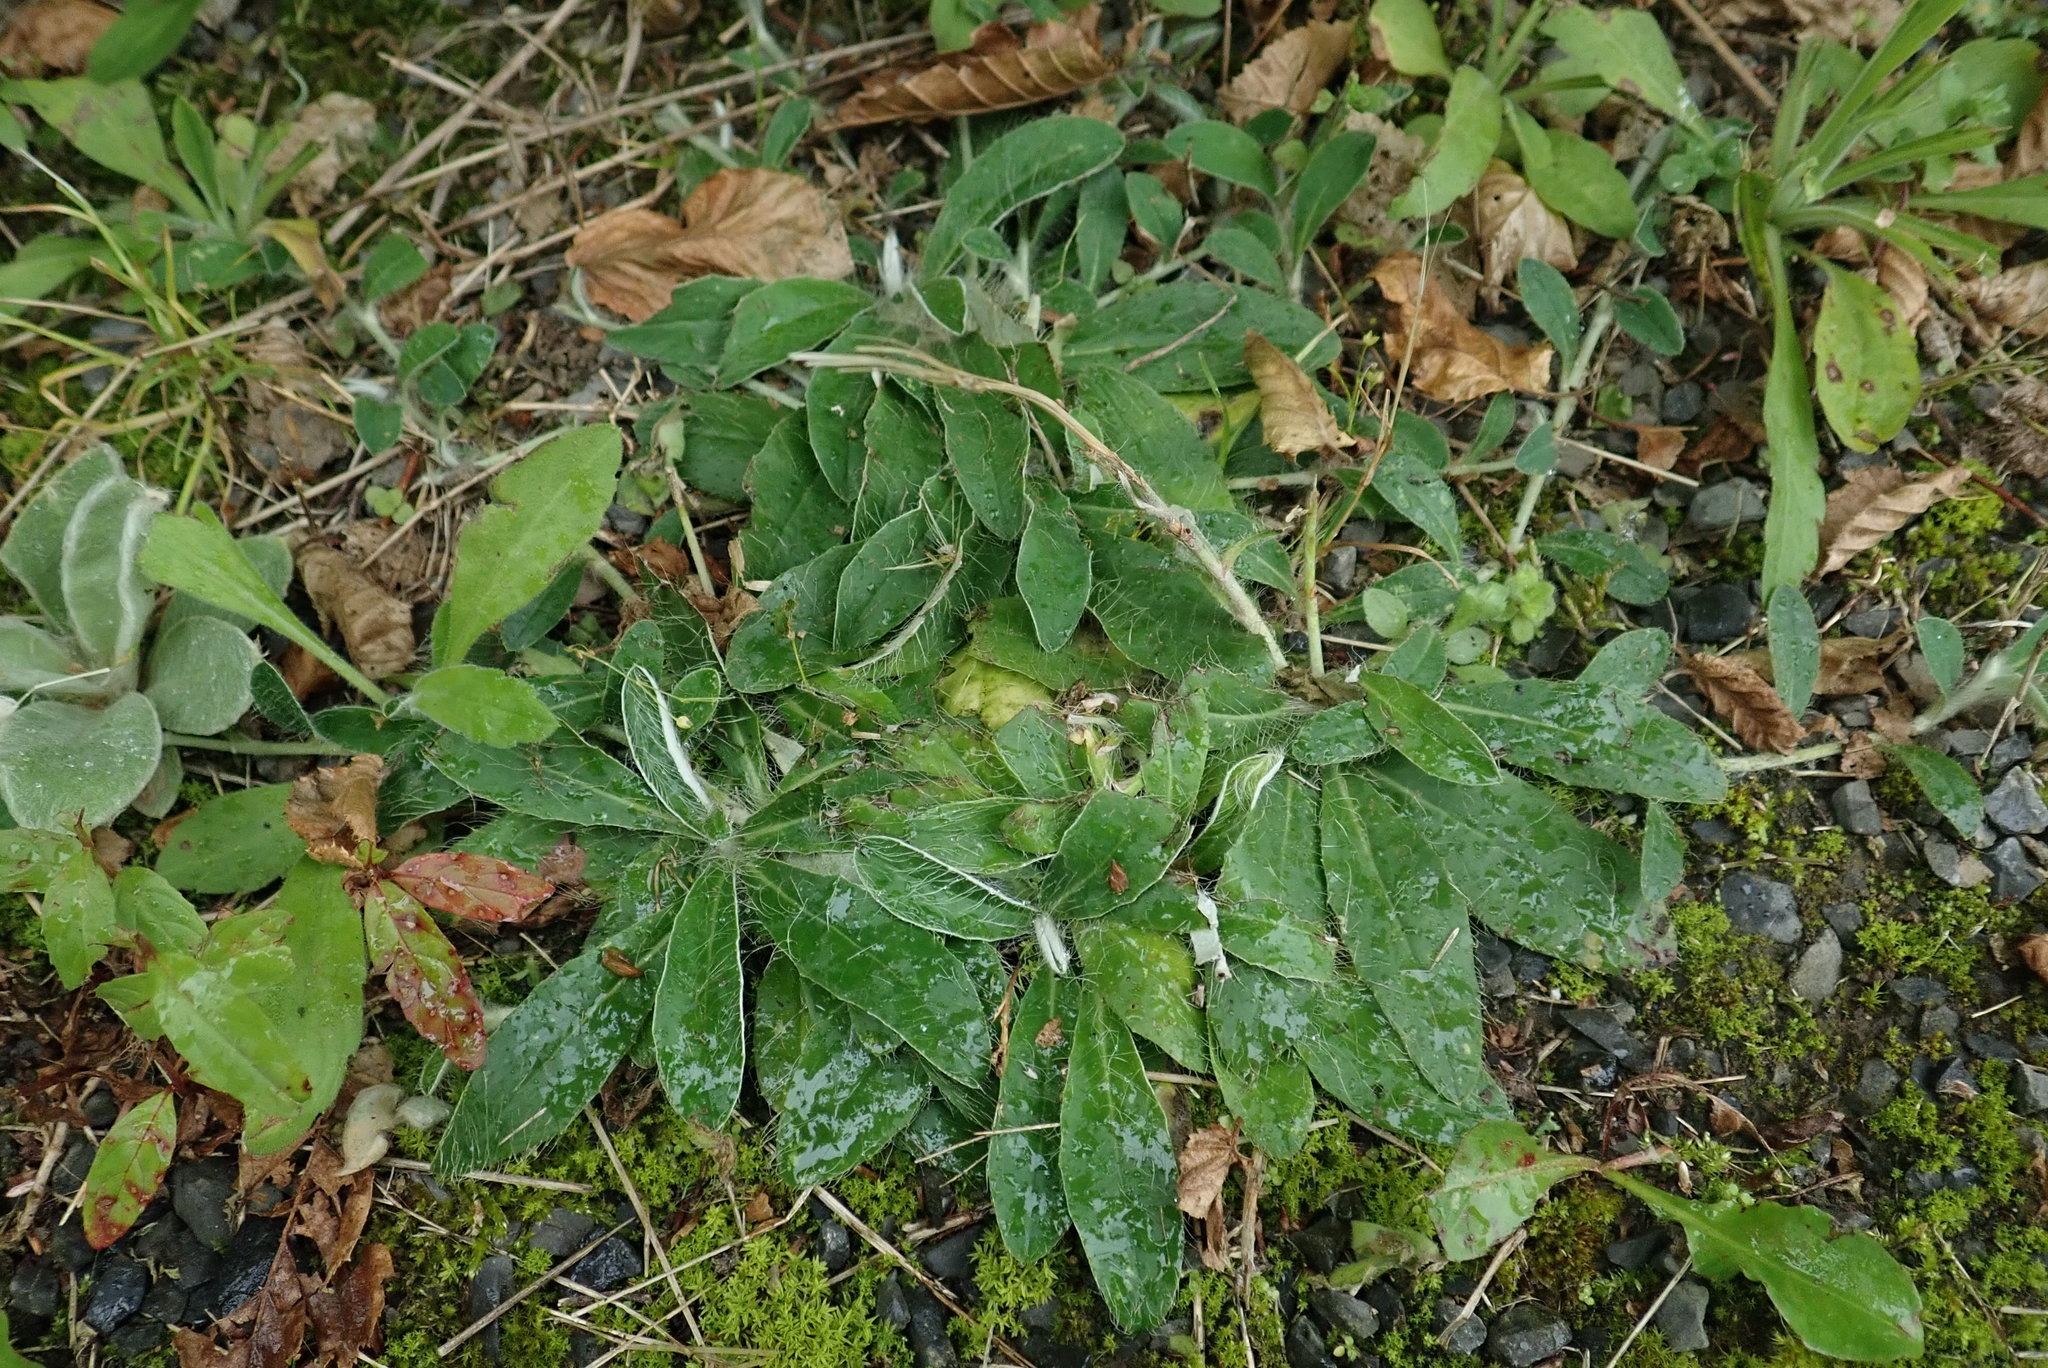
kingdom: Plantae
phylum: Tracheophyta
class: Magnoliopsida
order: Asterales
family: Asteraceae
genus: Pilosella
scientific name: Pilosella officinarum
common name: Mouse-ear hawkweed
